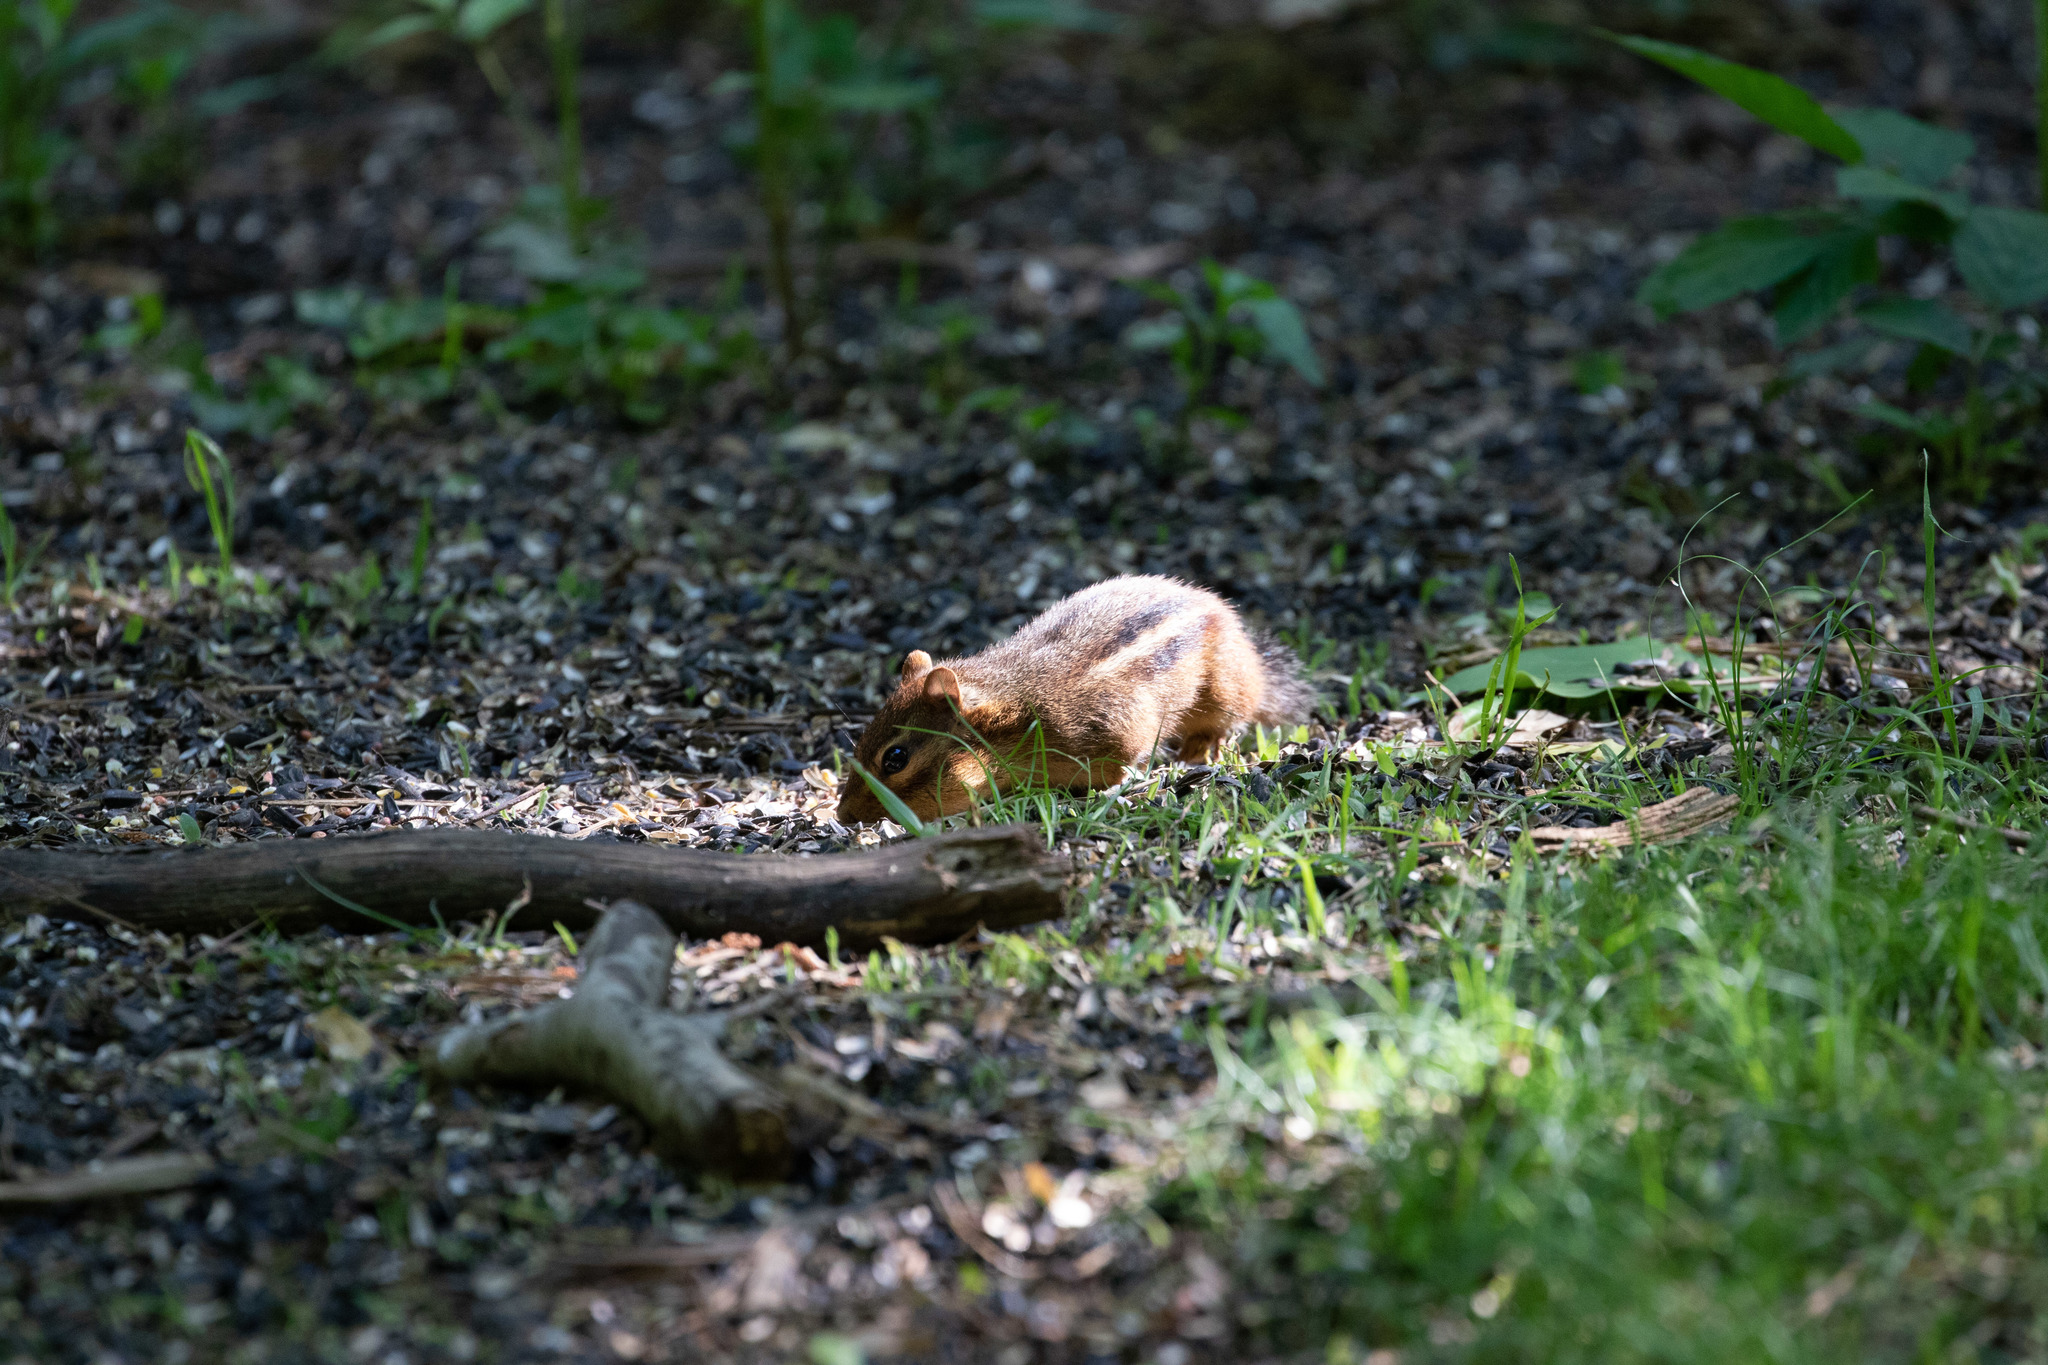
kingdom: Animalia
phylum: Chordata
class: Mammalia
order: Rodentia
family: Sciuridae
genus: Tamias
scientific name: Tamias striatus
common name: Eastern chipmunk
